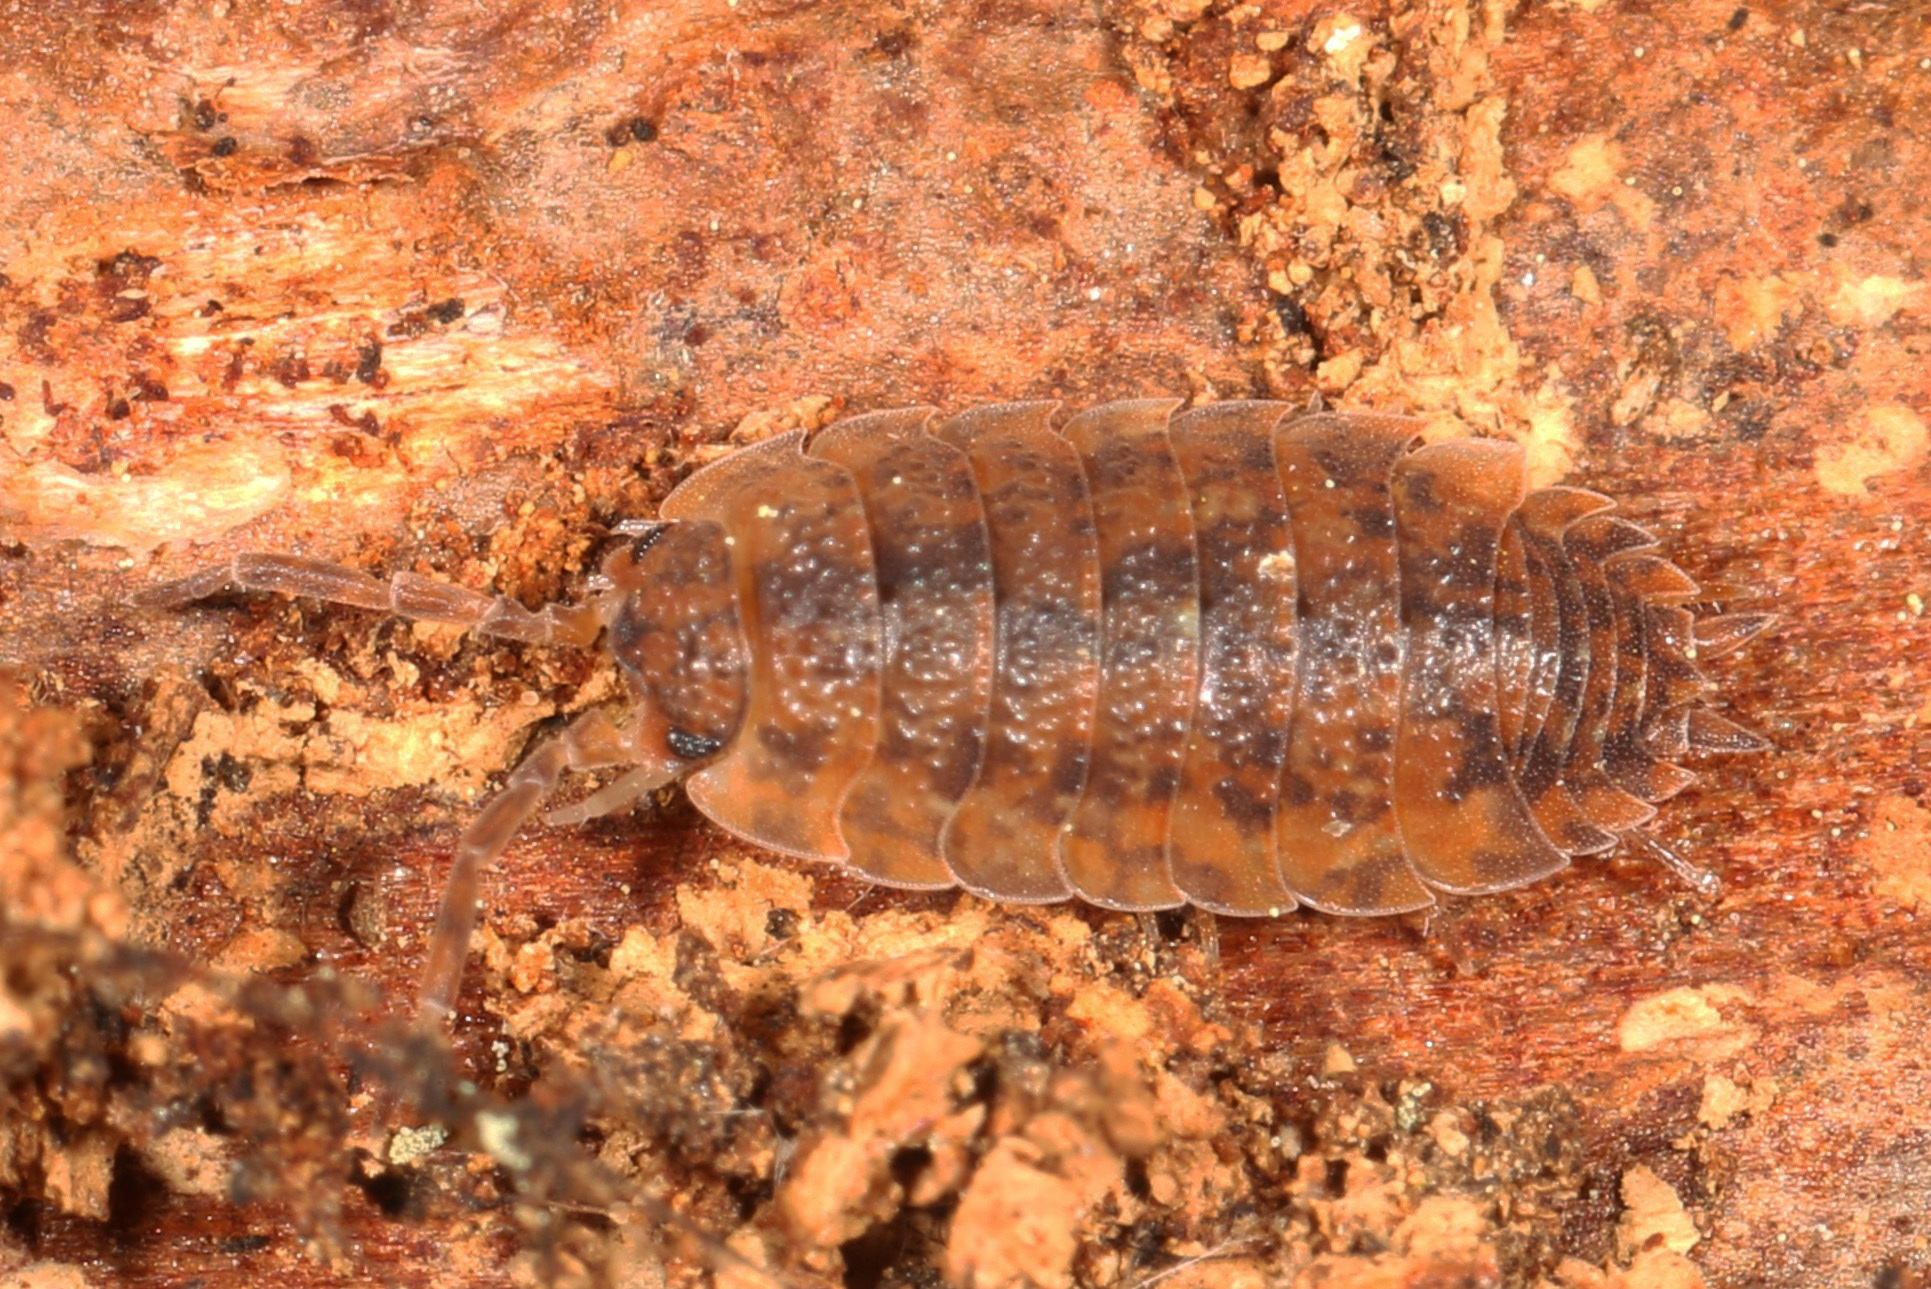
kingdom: Animalia
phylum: Arthropoda
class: Malacostraca
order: Isopoda
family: Porcellionidae
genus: Porcellio
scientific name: Porcellio scaber
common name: Common rough woodlouse
